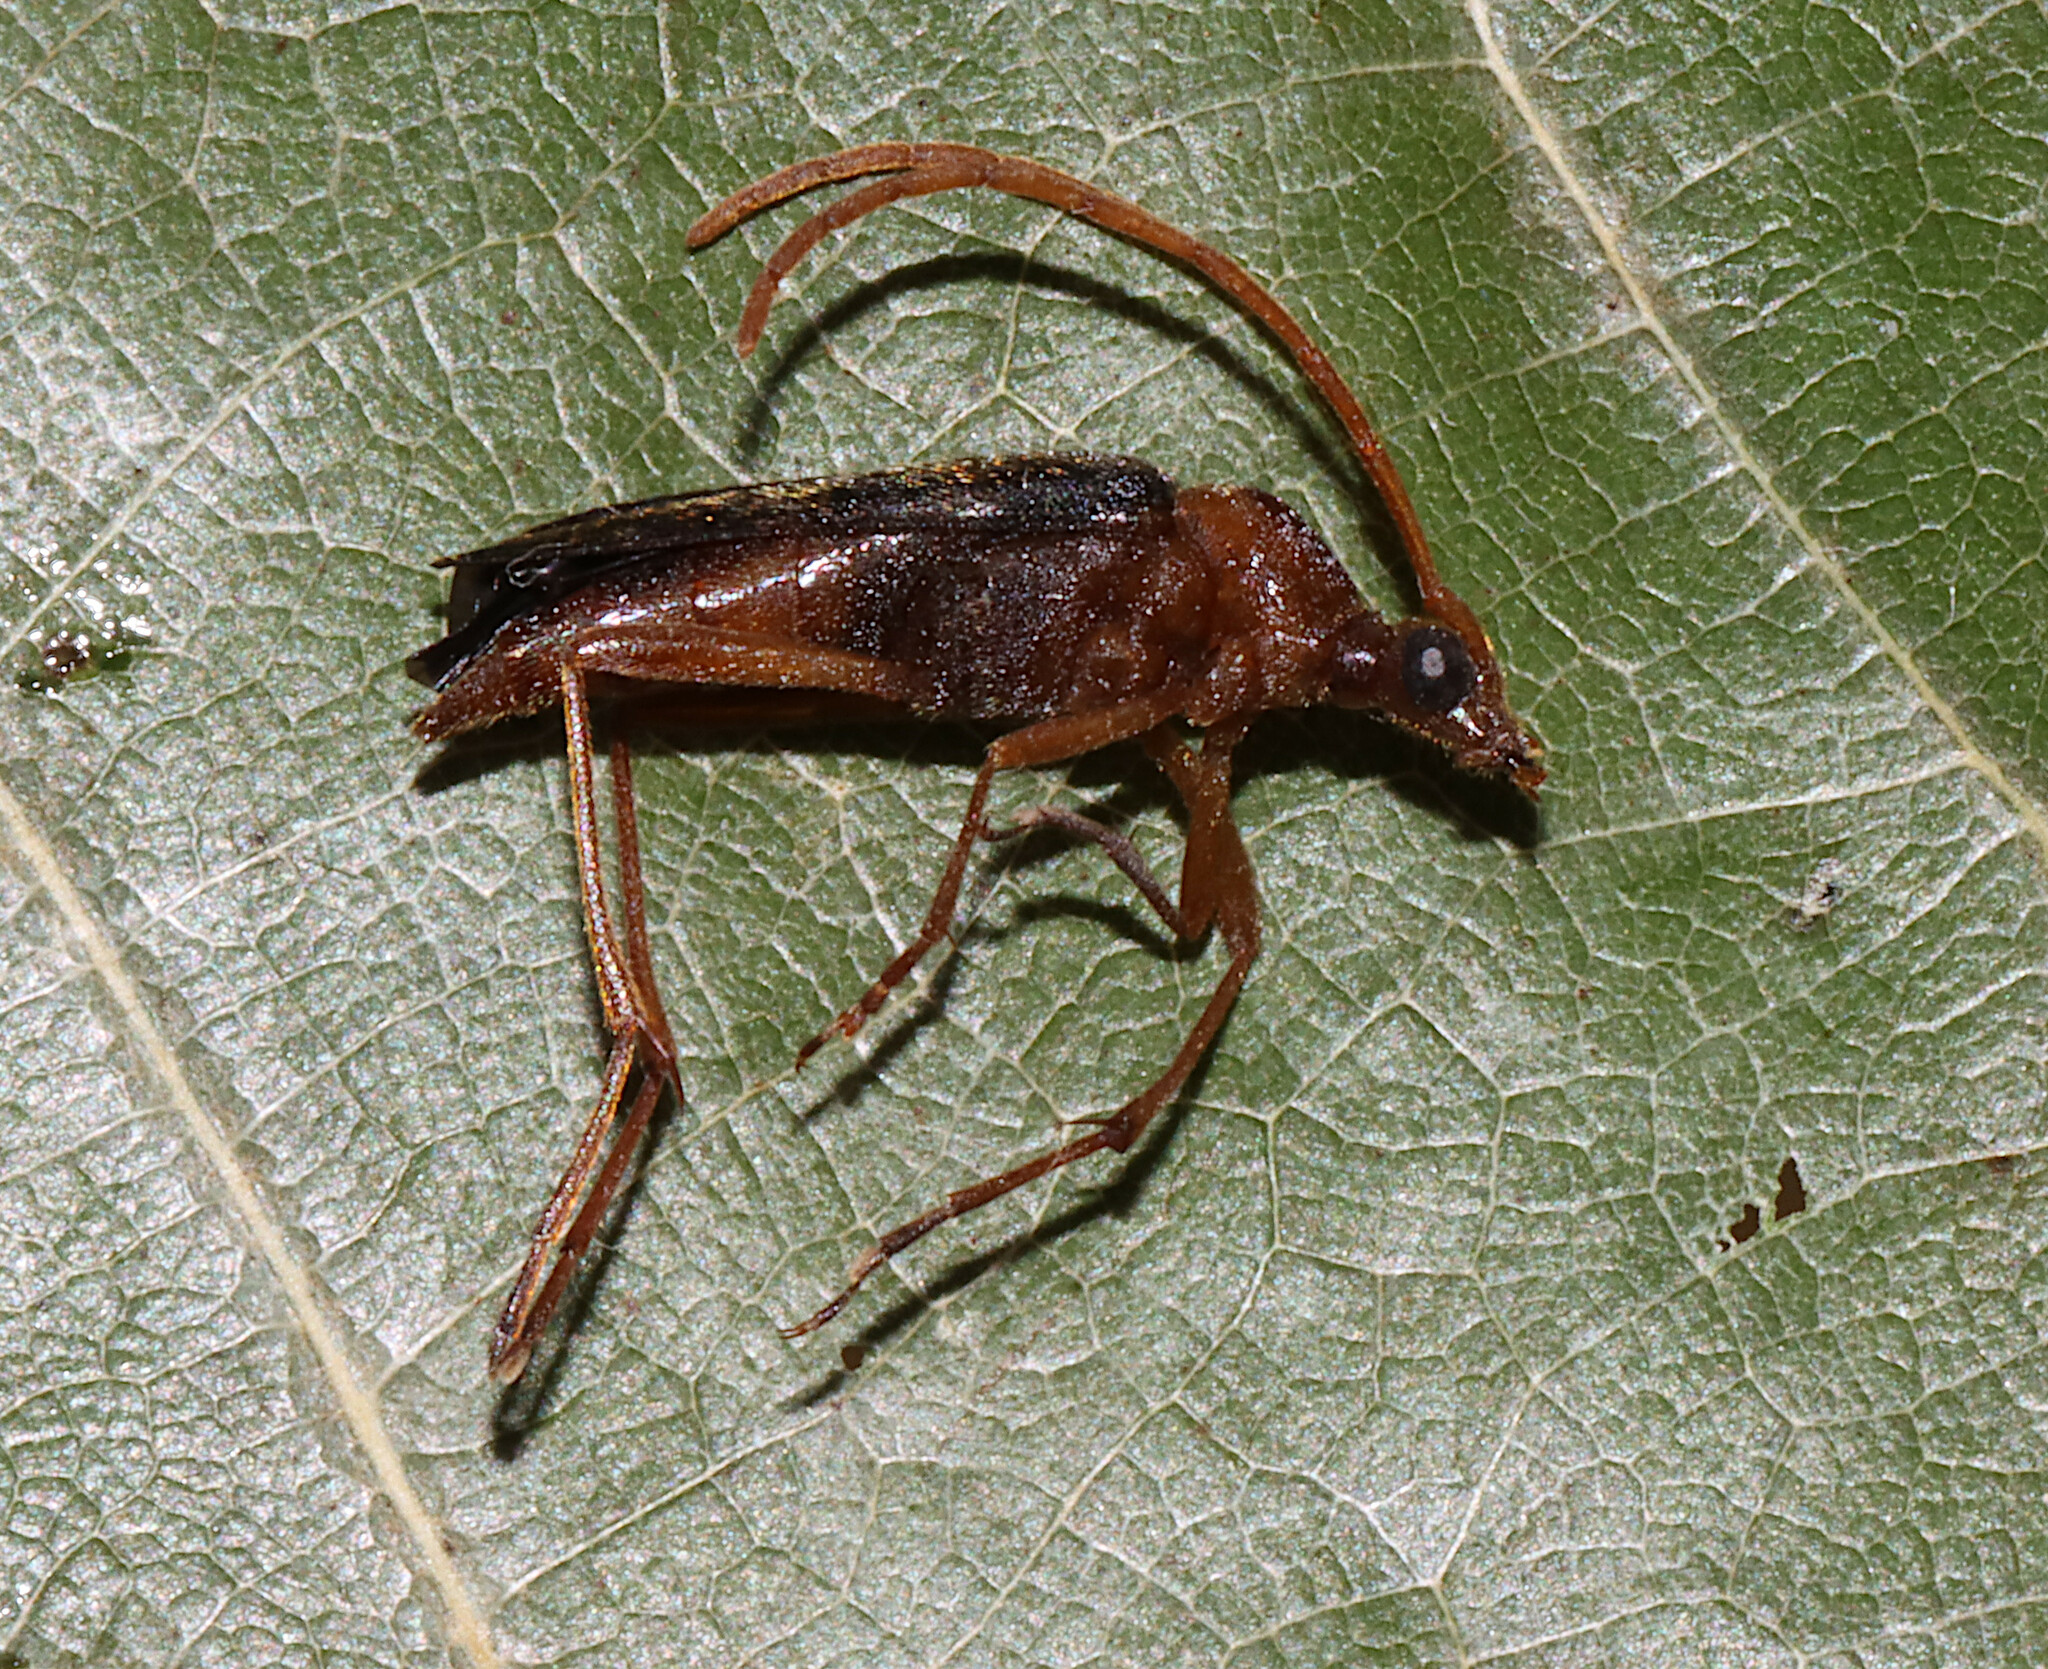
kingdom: Animalia
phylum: Arthropoda
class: Insecta
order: Coleoptera
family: Cerambycidae
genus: Strangalia
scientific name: Strangalia bicolor
